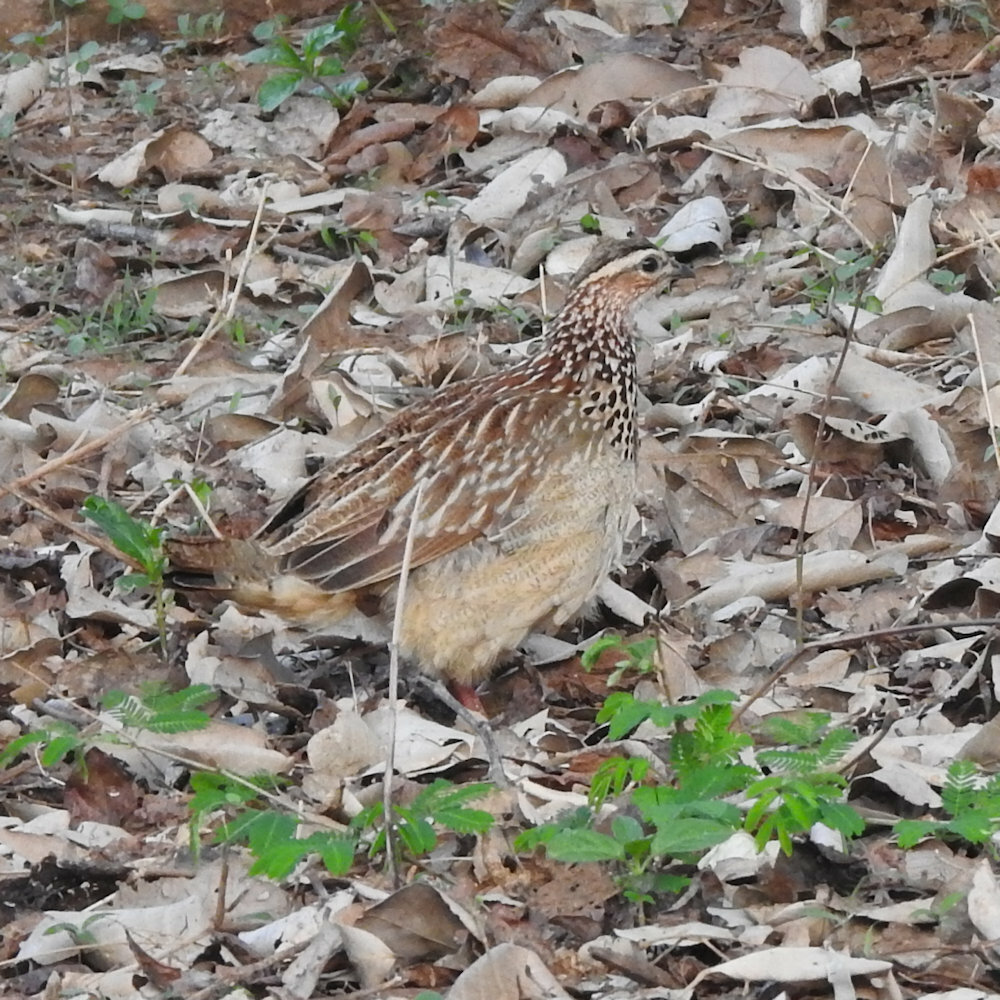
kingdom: Animalia
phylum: Chordata
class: Aves
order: Galliformes
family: Phasianidae
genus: Ortygornis
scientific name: Ortygornis sephaena
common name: Crested francolin
